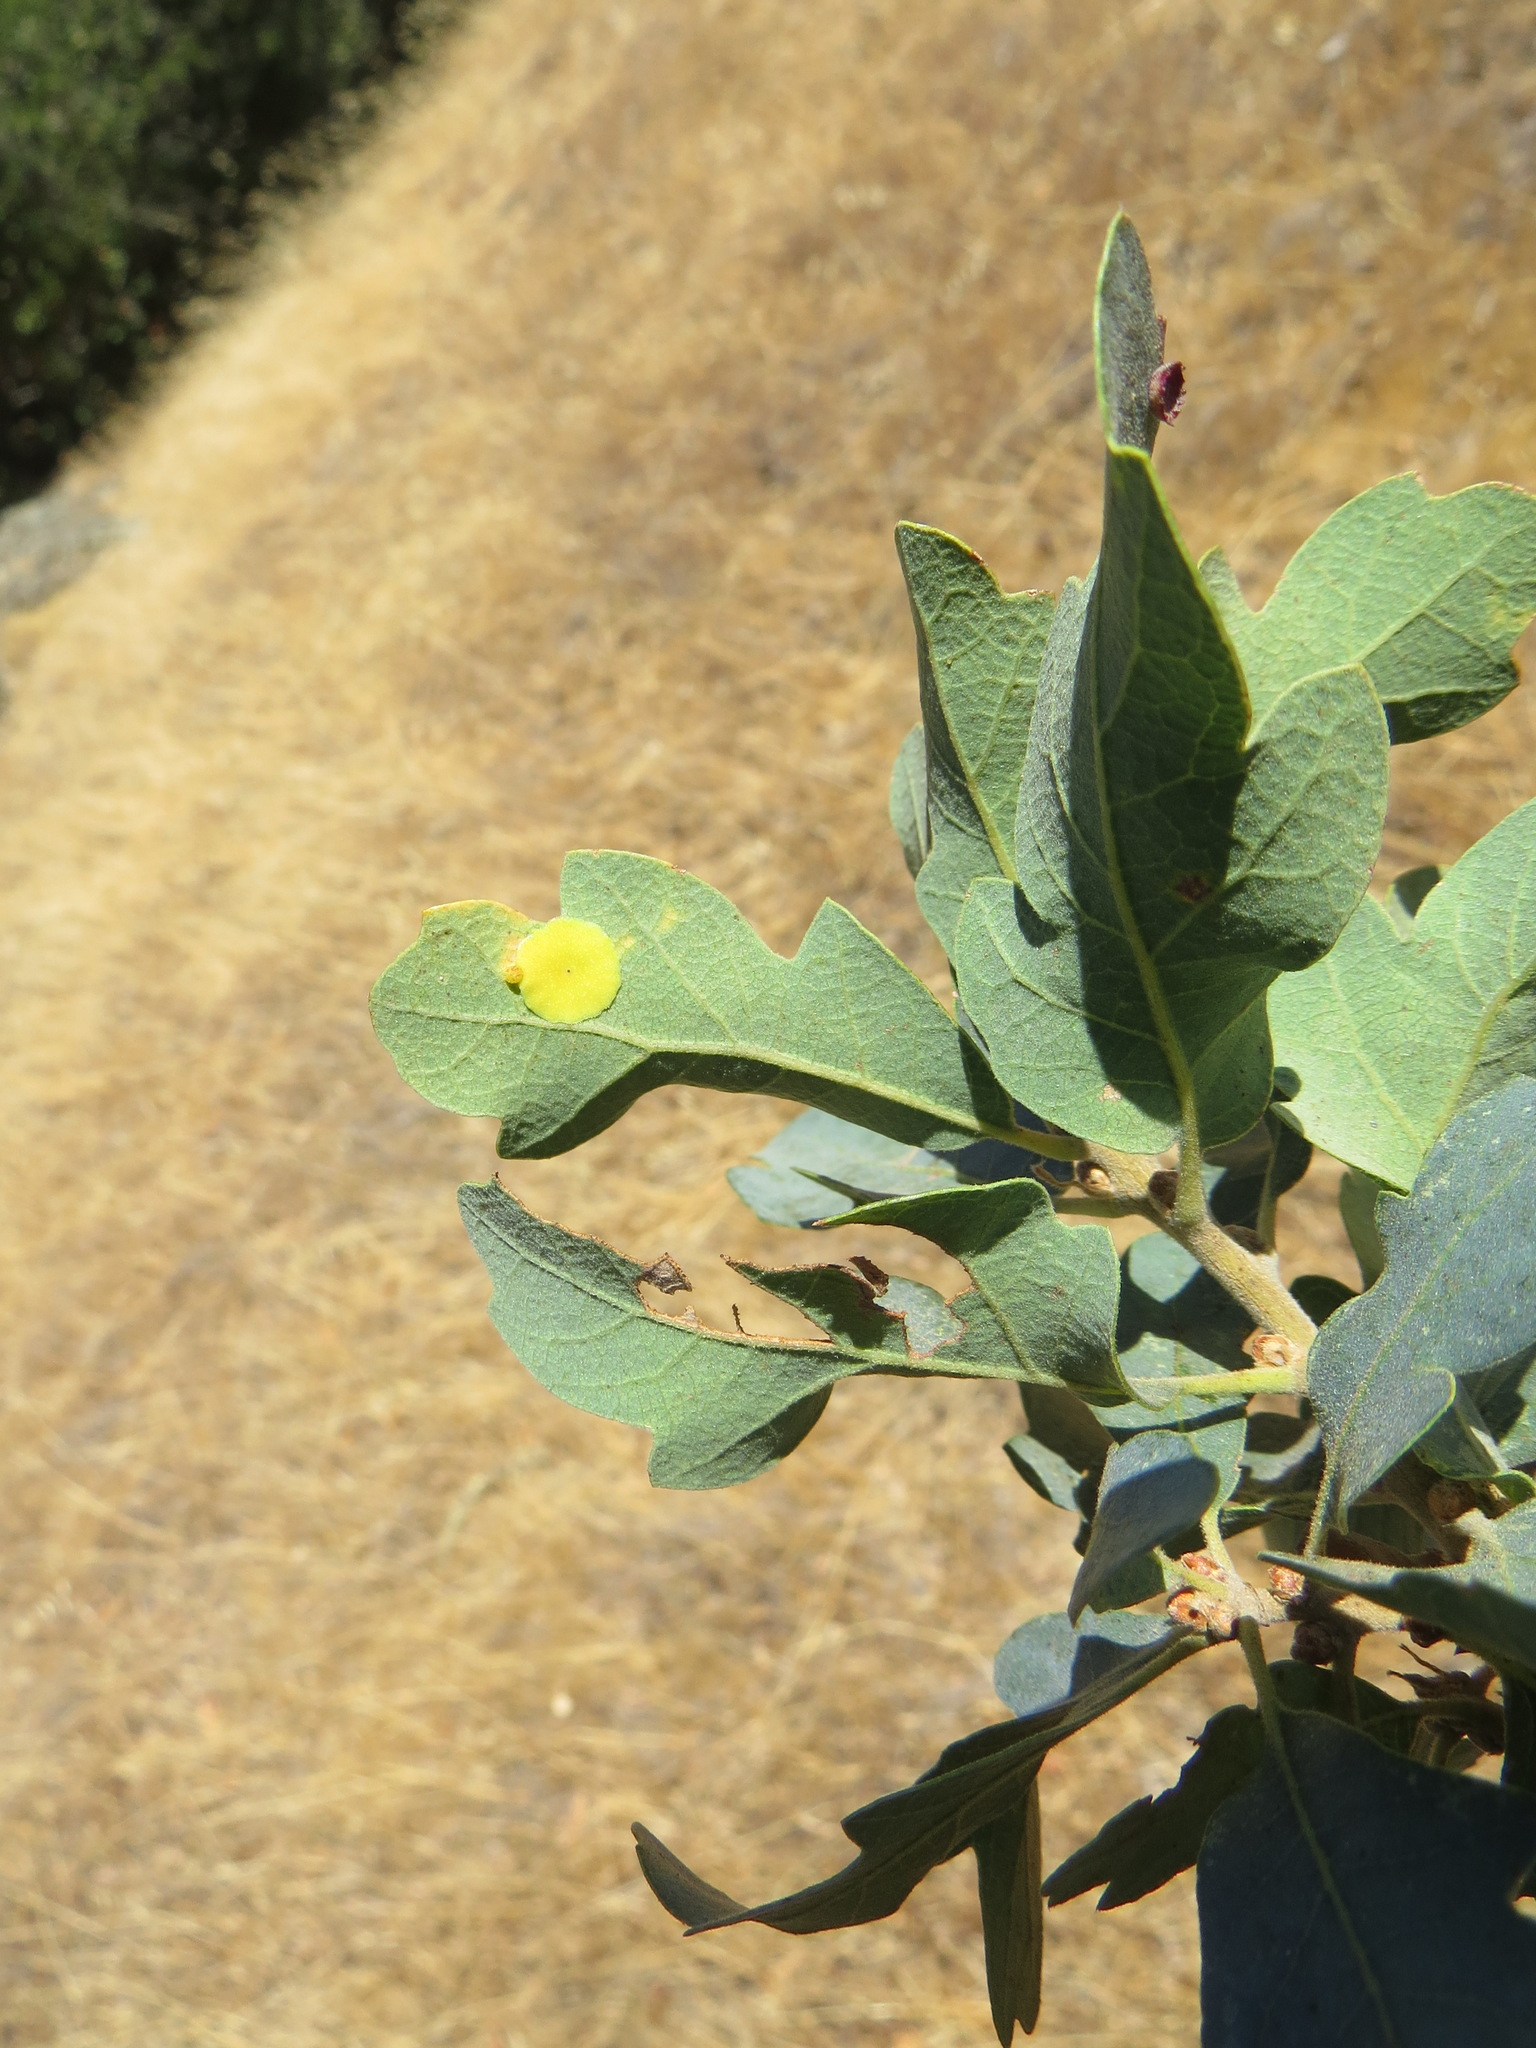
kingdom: Animalia
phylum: Arthropoda
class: Insecta
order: Hymenoptera
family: Cynipidae
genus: Andricus
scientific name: Andricus
